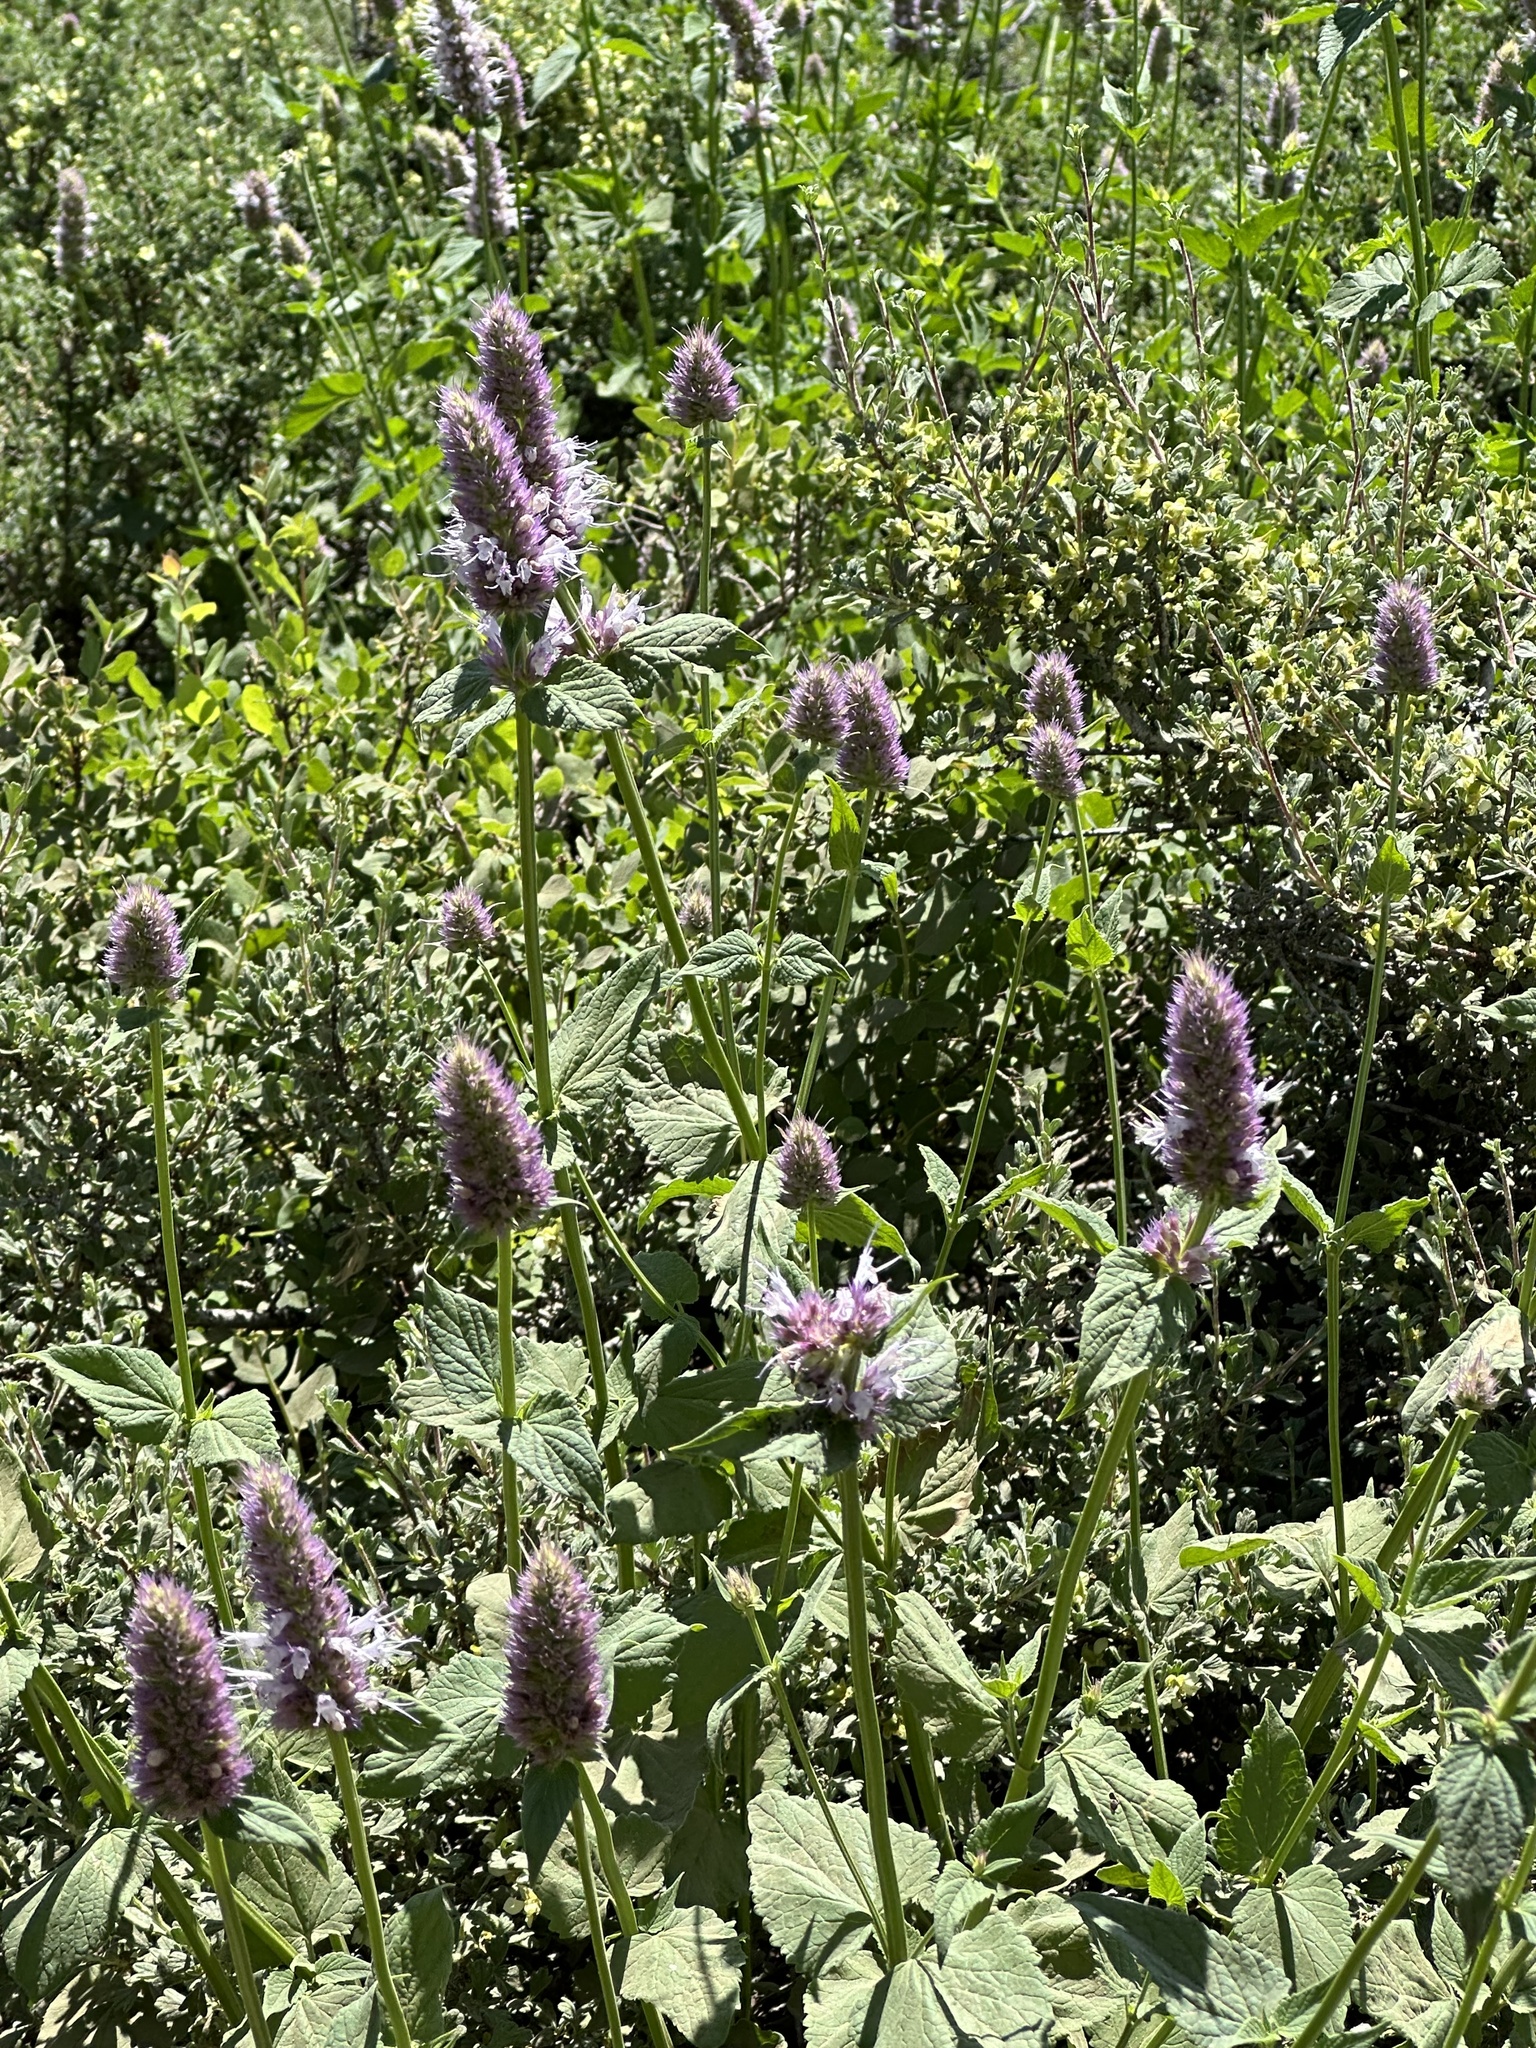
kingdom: Plantae
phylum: Tracheophyta
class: Magnoliopsida
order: Lamiales
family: Lamiaceae
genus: Agastache
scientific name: Agastache urticifolia
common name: Horsemint giant hyssop
